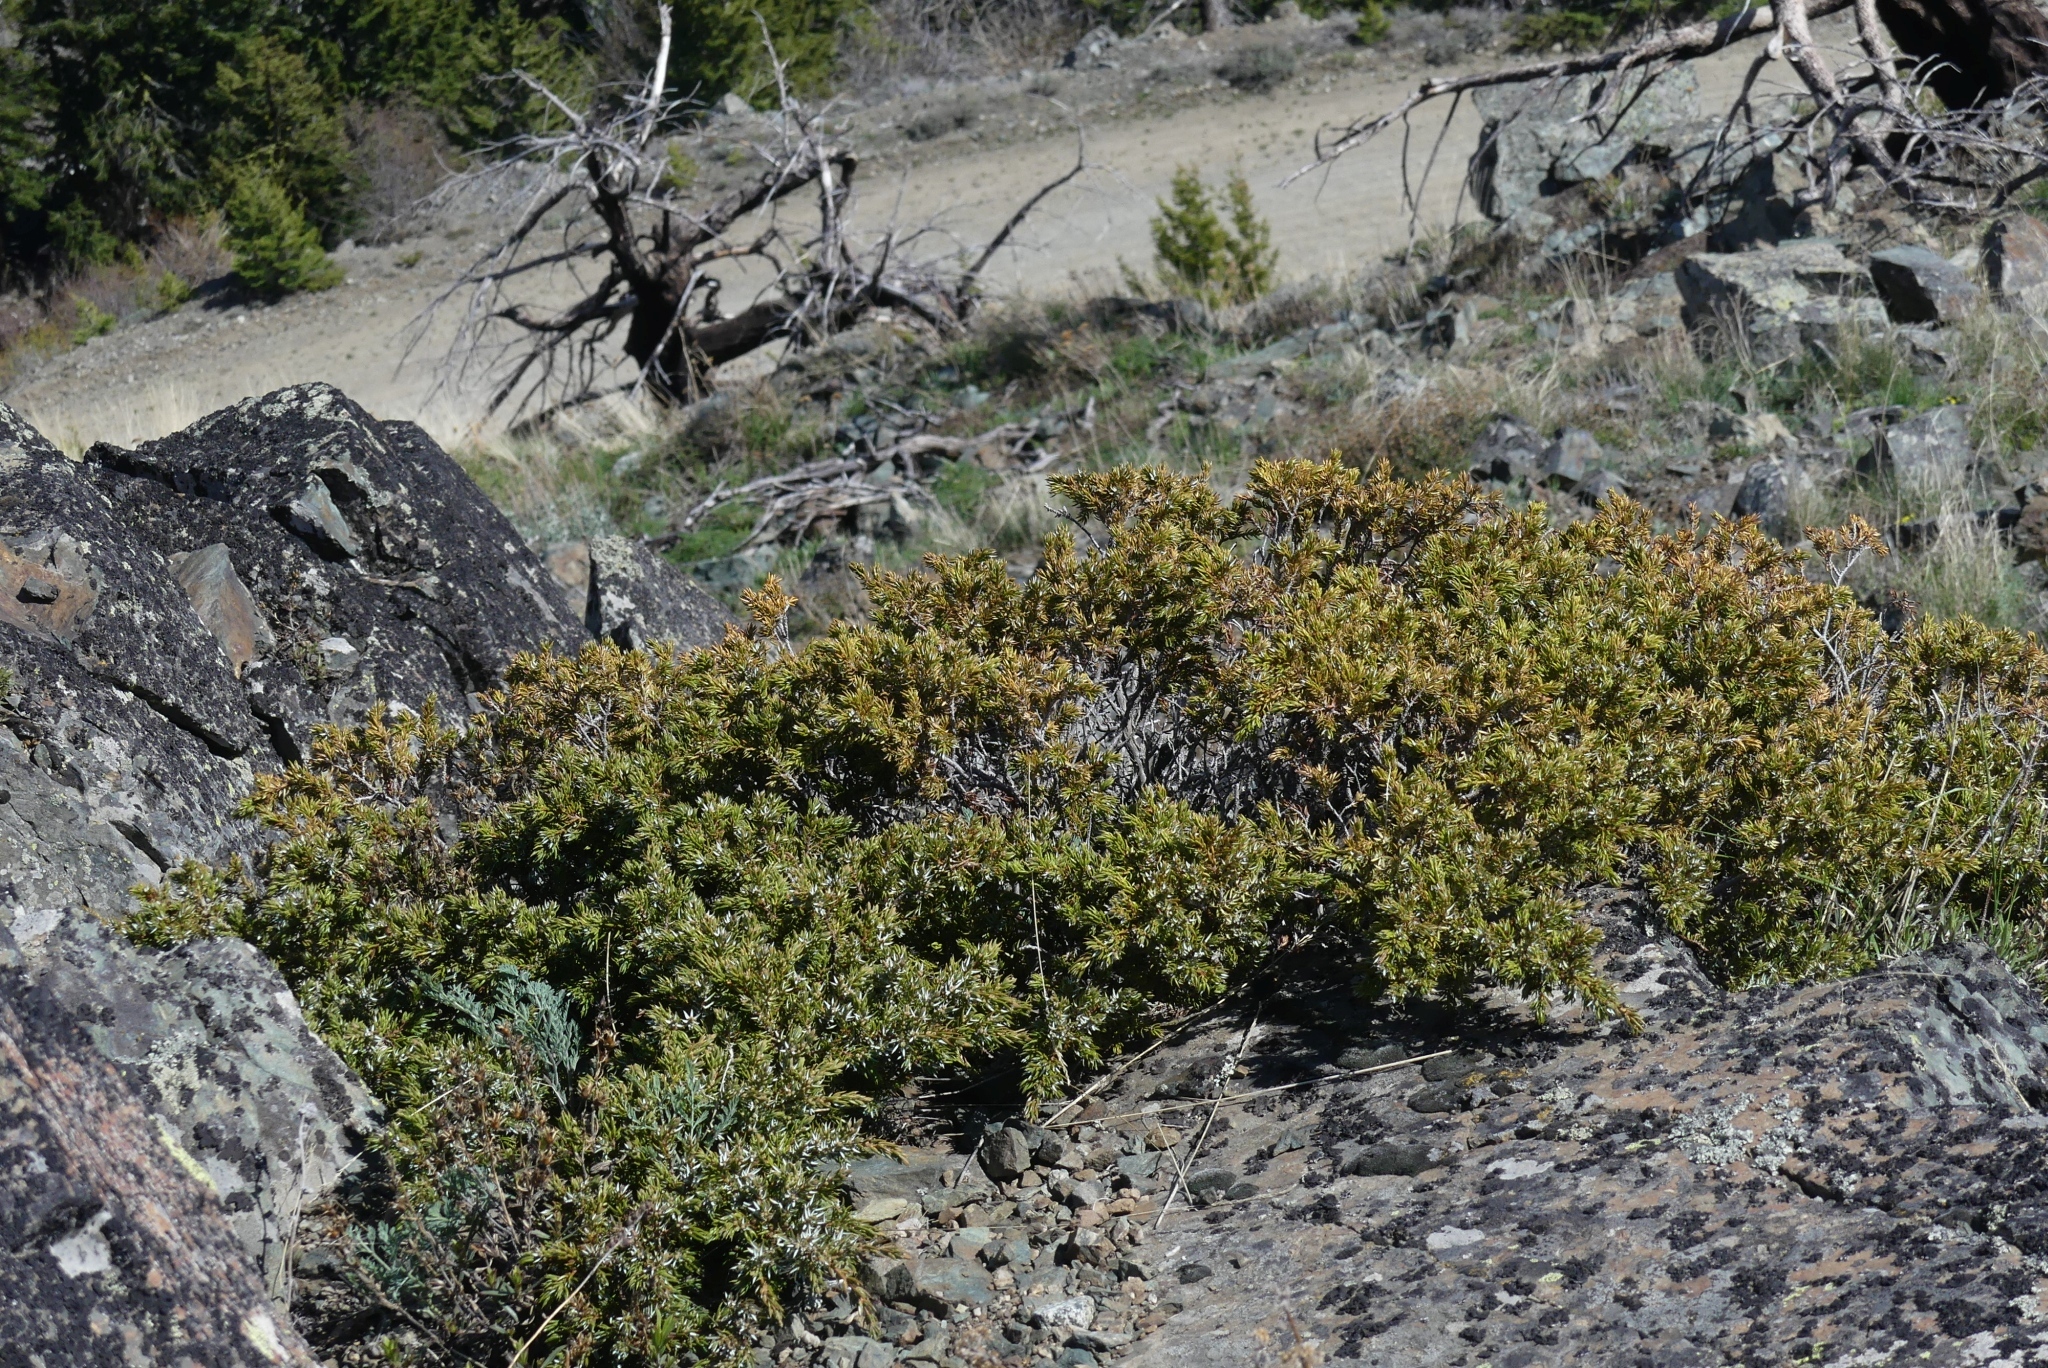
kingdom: Plantae
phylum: Tracheophyta
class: Pinopsida
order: Pinales
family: Cupressaceae
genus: Juniperus
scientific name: Juniperus communis
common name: Common juniper
